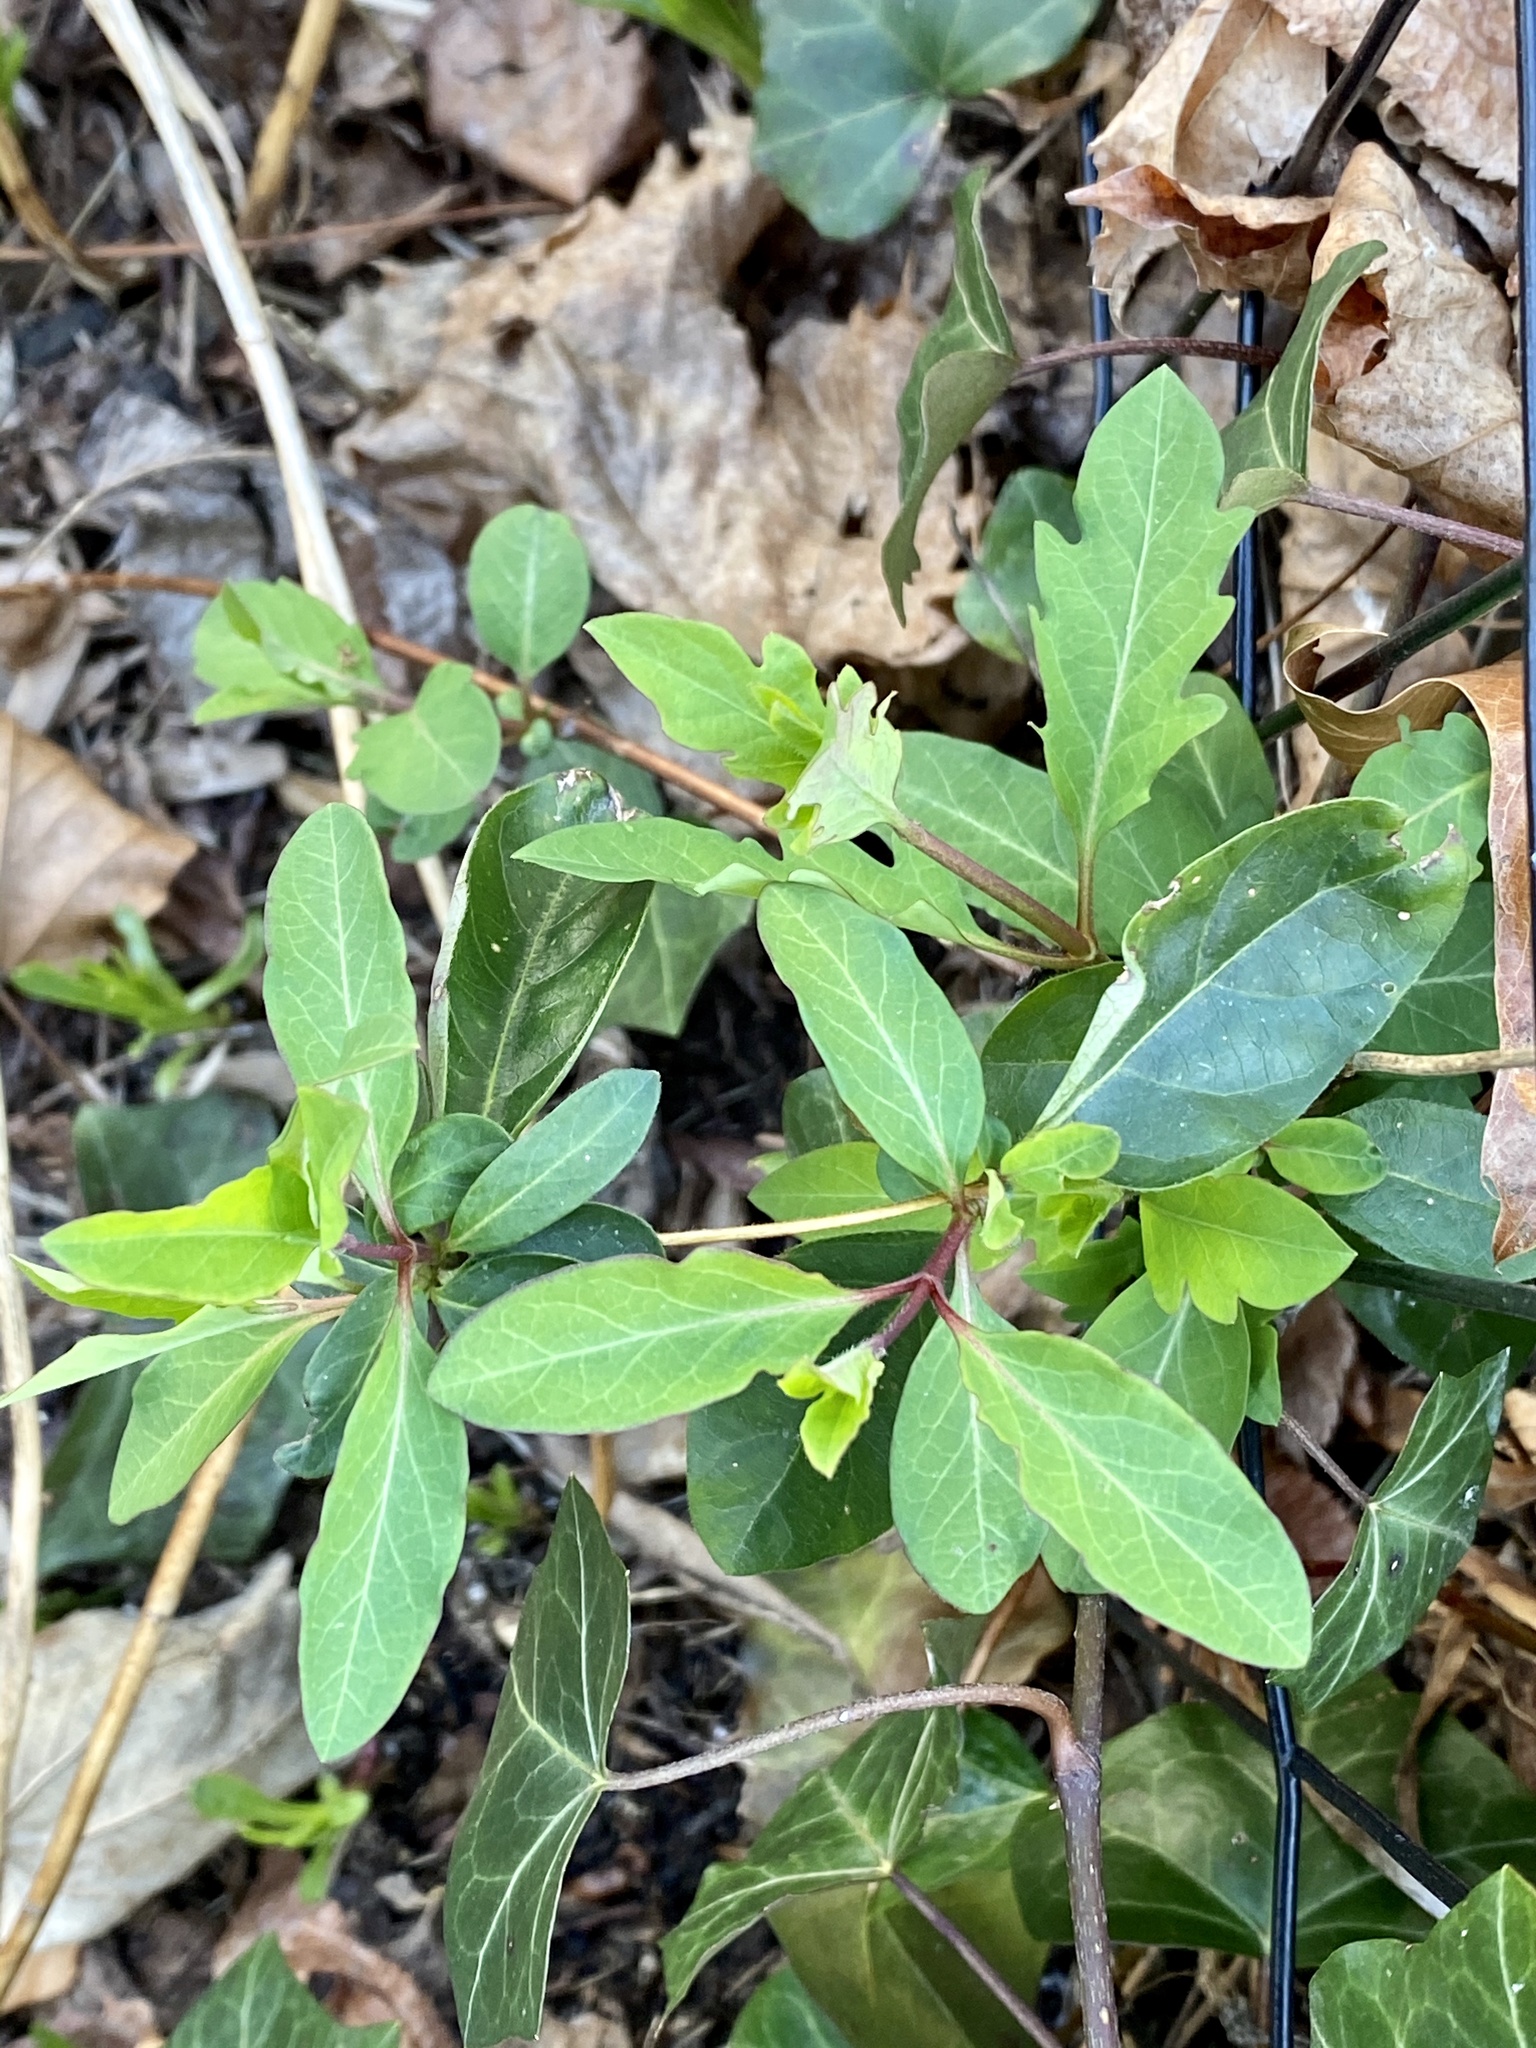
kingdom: Plantae
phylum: Tracheophyta
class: Magnoliopsida
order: Dipsacales
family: Caprifoliaceae
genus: Lonicera
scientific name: Lonicera japonica
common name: Japanese honeysuckle
